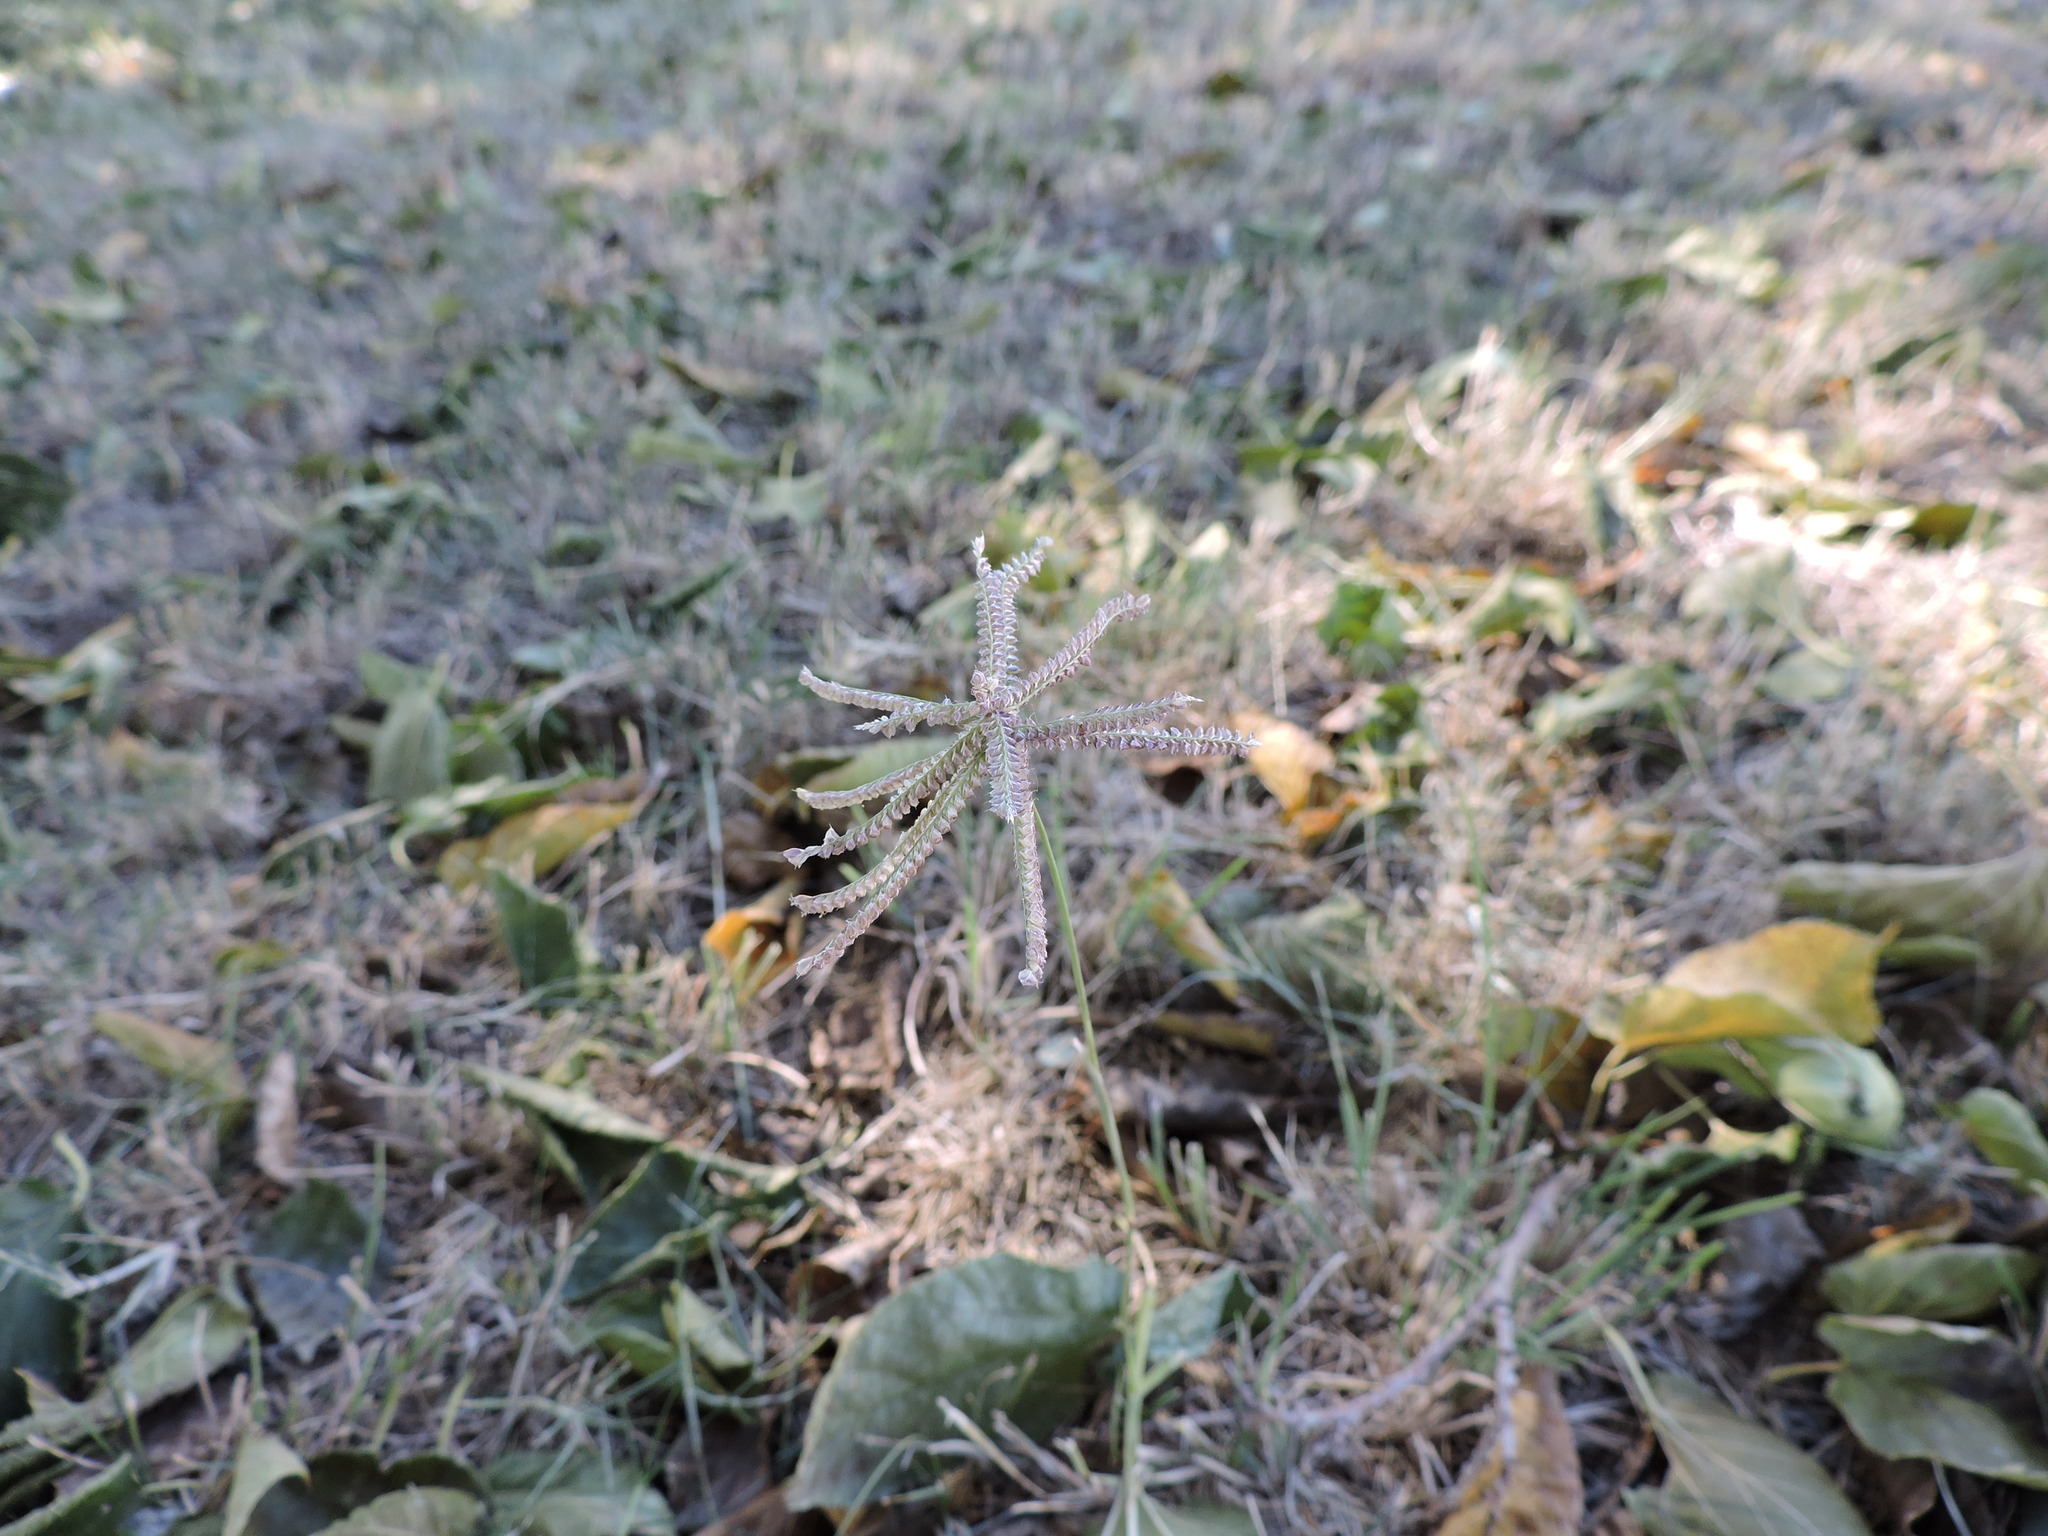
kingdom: Plantae
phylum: Tracheophyta
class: Liliopsida
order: Poales
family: Poaceae
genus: Chloris
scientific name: Chloris cucullata
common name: Hooded windmill grass
